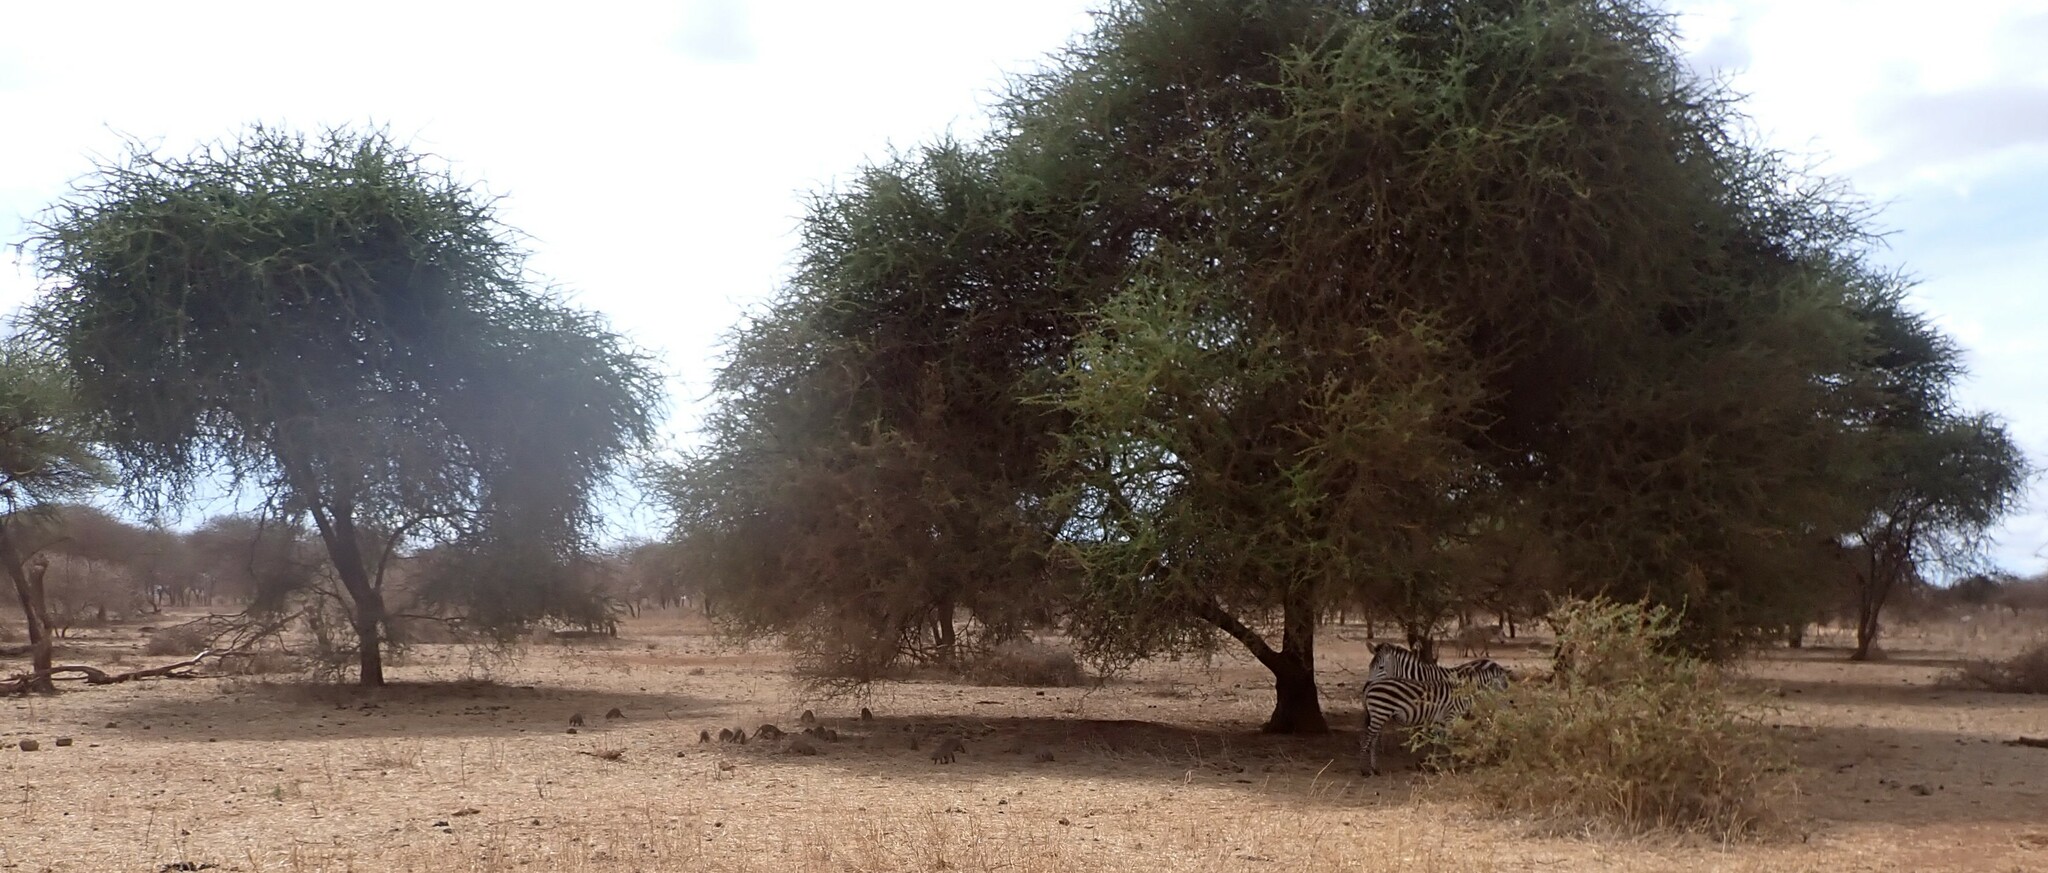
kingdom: Animalia
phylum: Chordata
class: Mammalia
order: Perissodactyla
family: Equidae
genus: Equus
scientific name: Equus quagga
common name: Plains zebra
